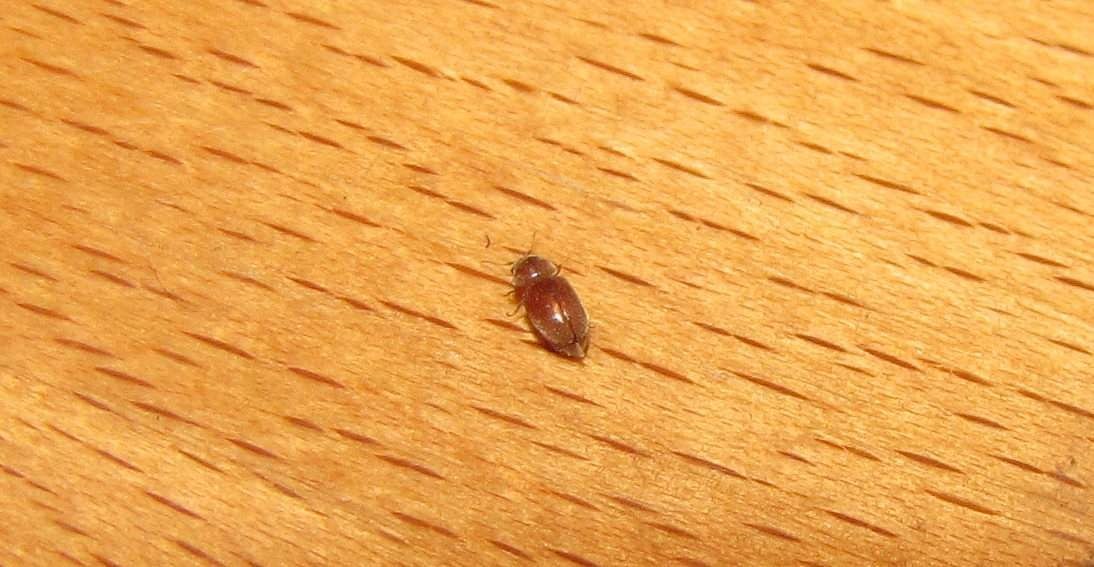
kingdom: Animalia
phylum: Arthropoda
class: Insecta
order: Coleoptera
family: Anobiidae
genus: Lasioderma
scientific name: Lasioderma serricorne
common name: Cigarette beetle
